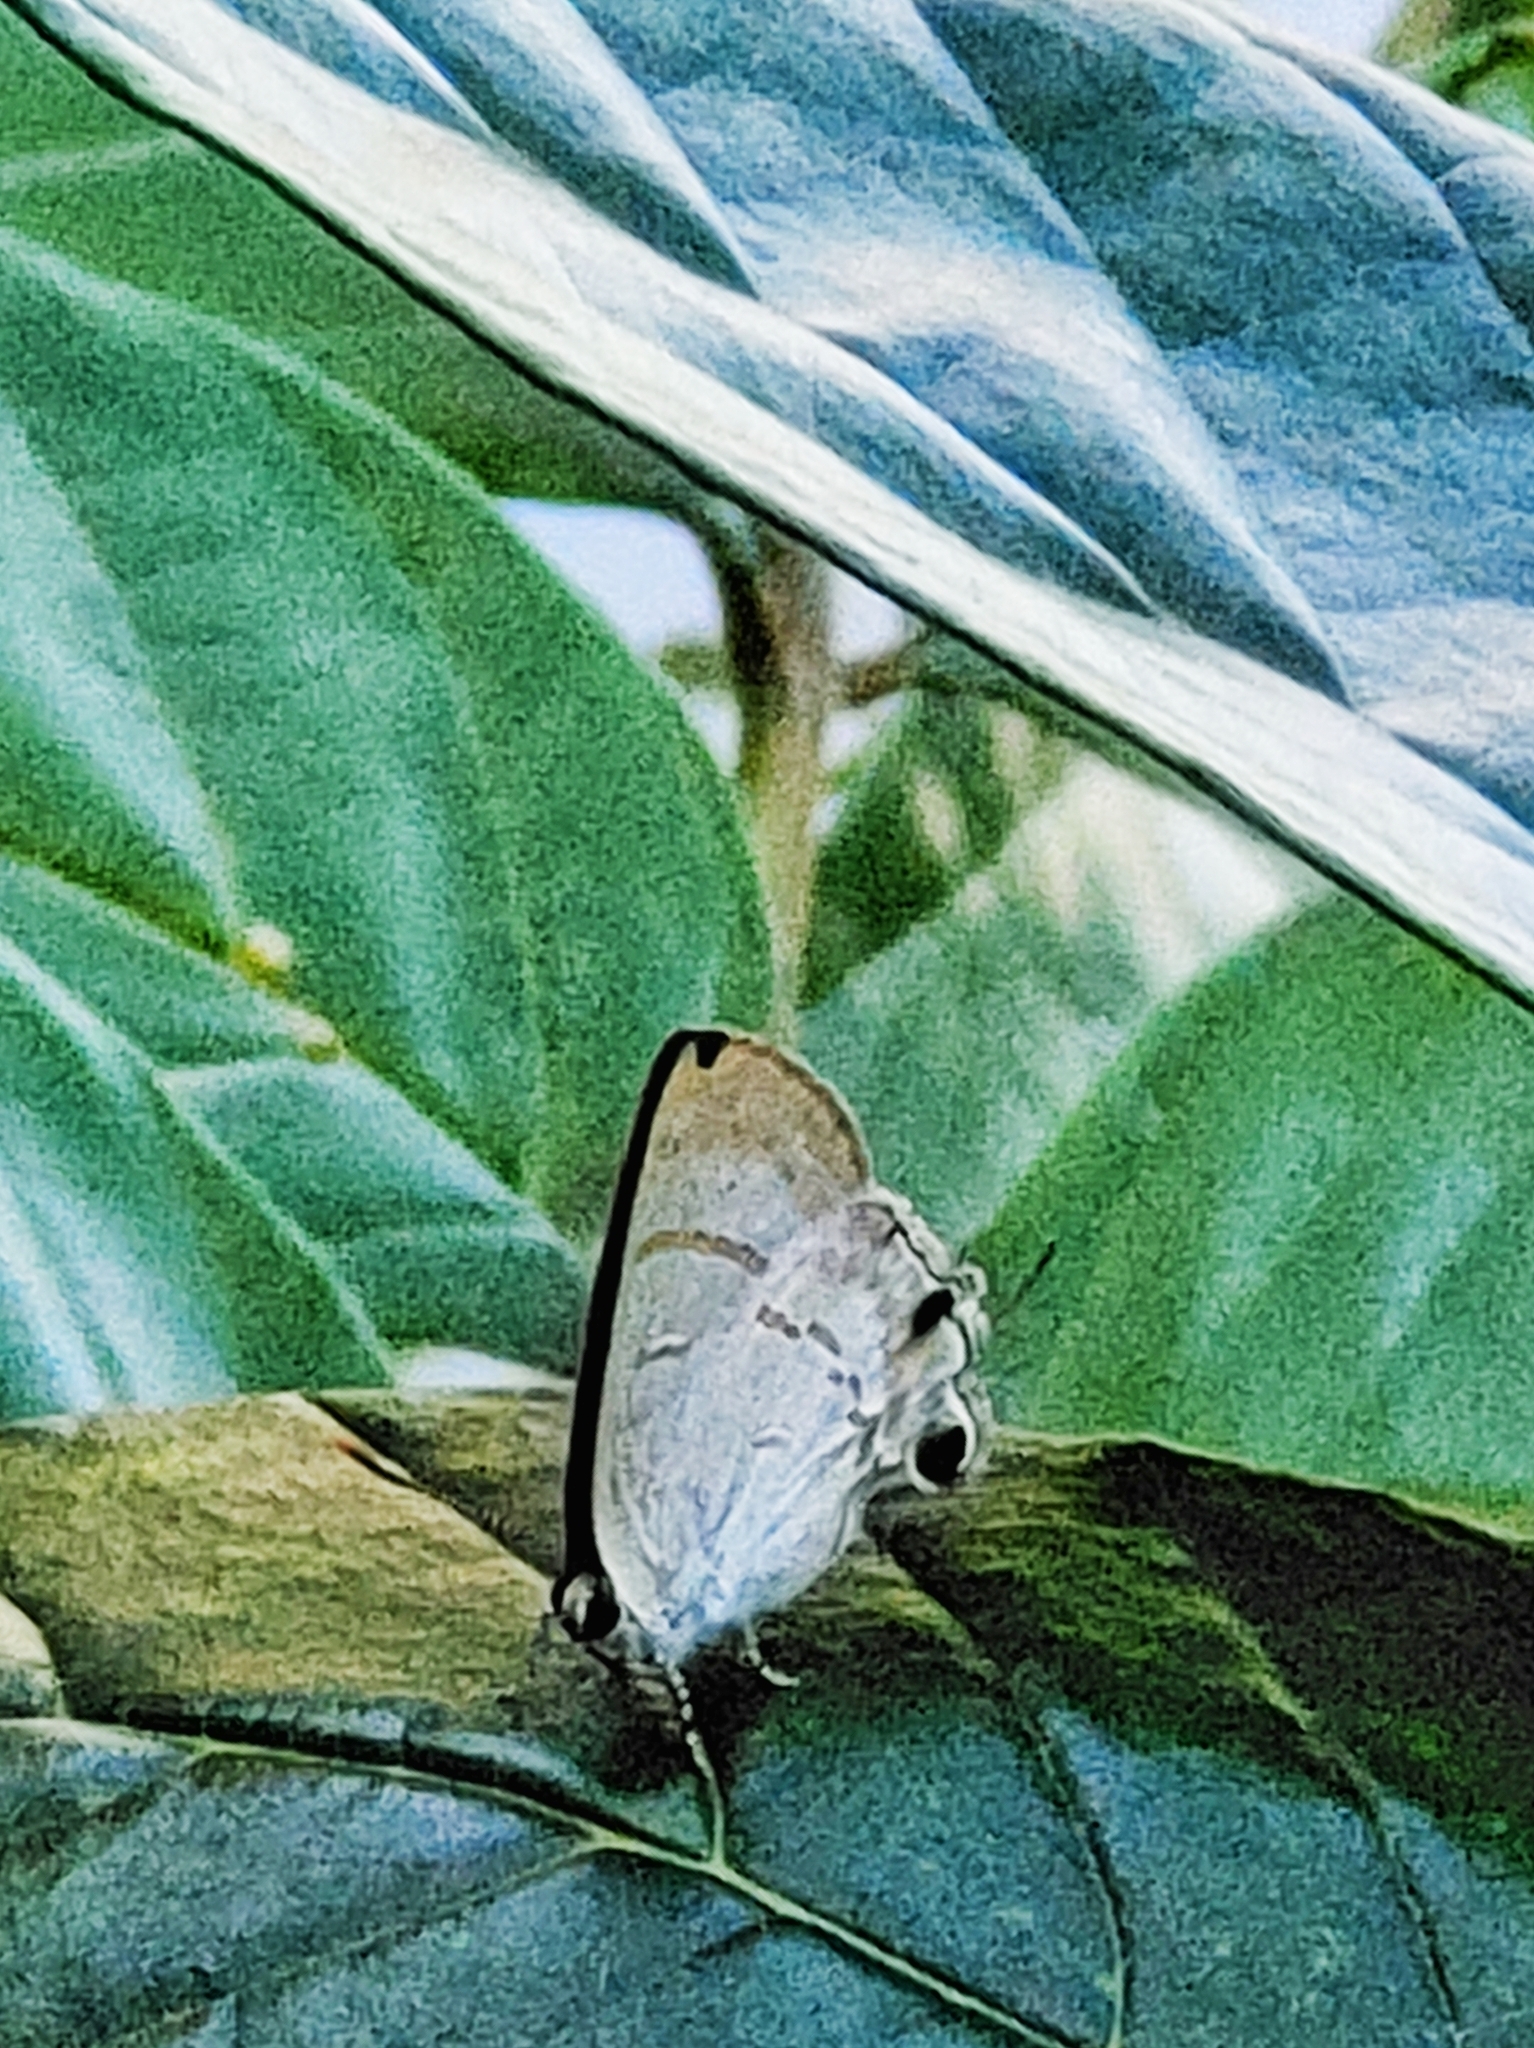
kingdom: Animalia
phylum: Arthropoda
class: Insecta
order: Lepidoptera
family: Lycaenidae
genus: Hypolycaena
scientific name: Hypolycaena erylus
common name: Common tit
